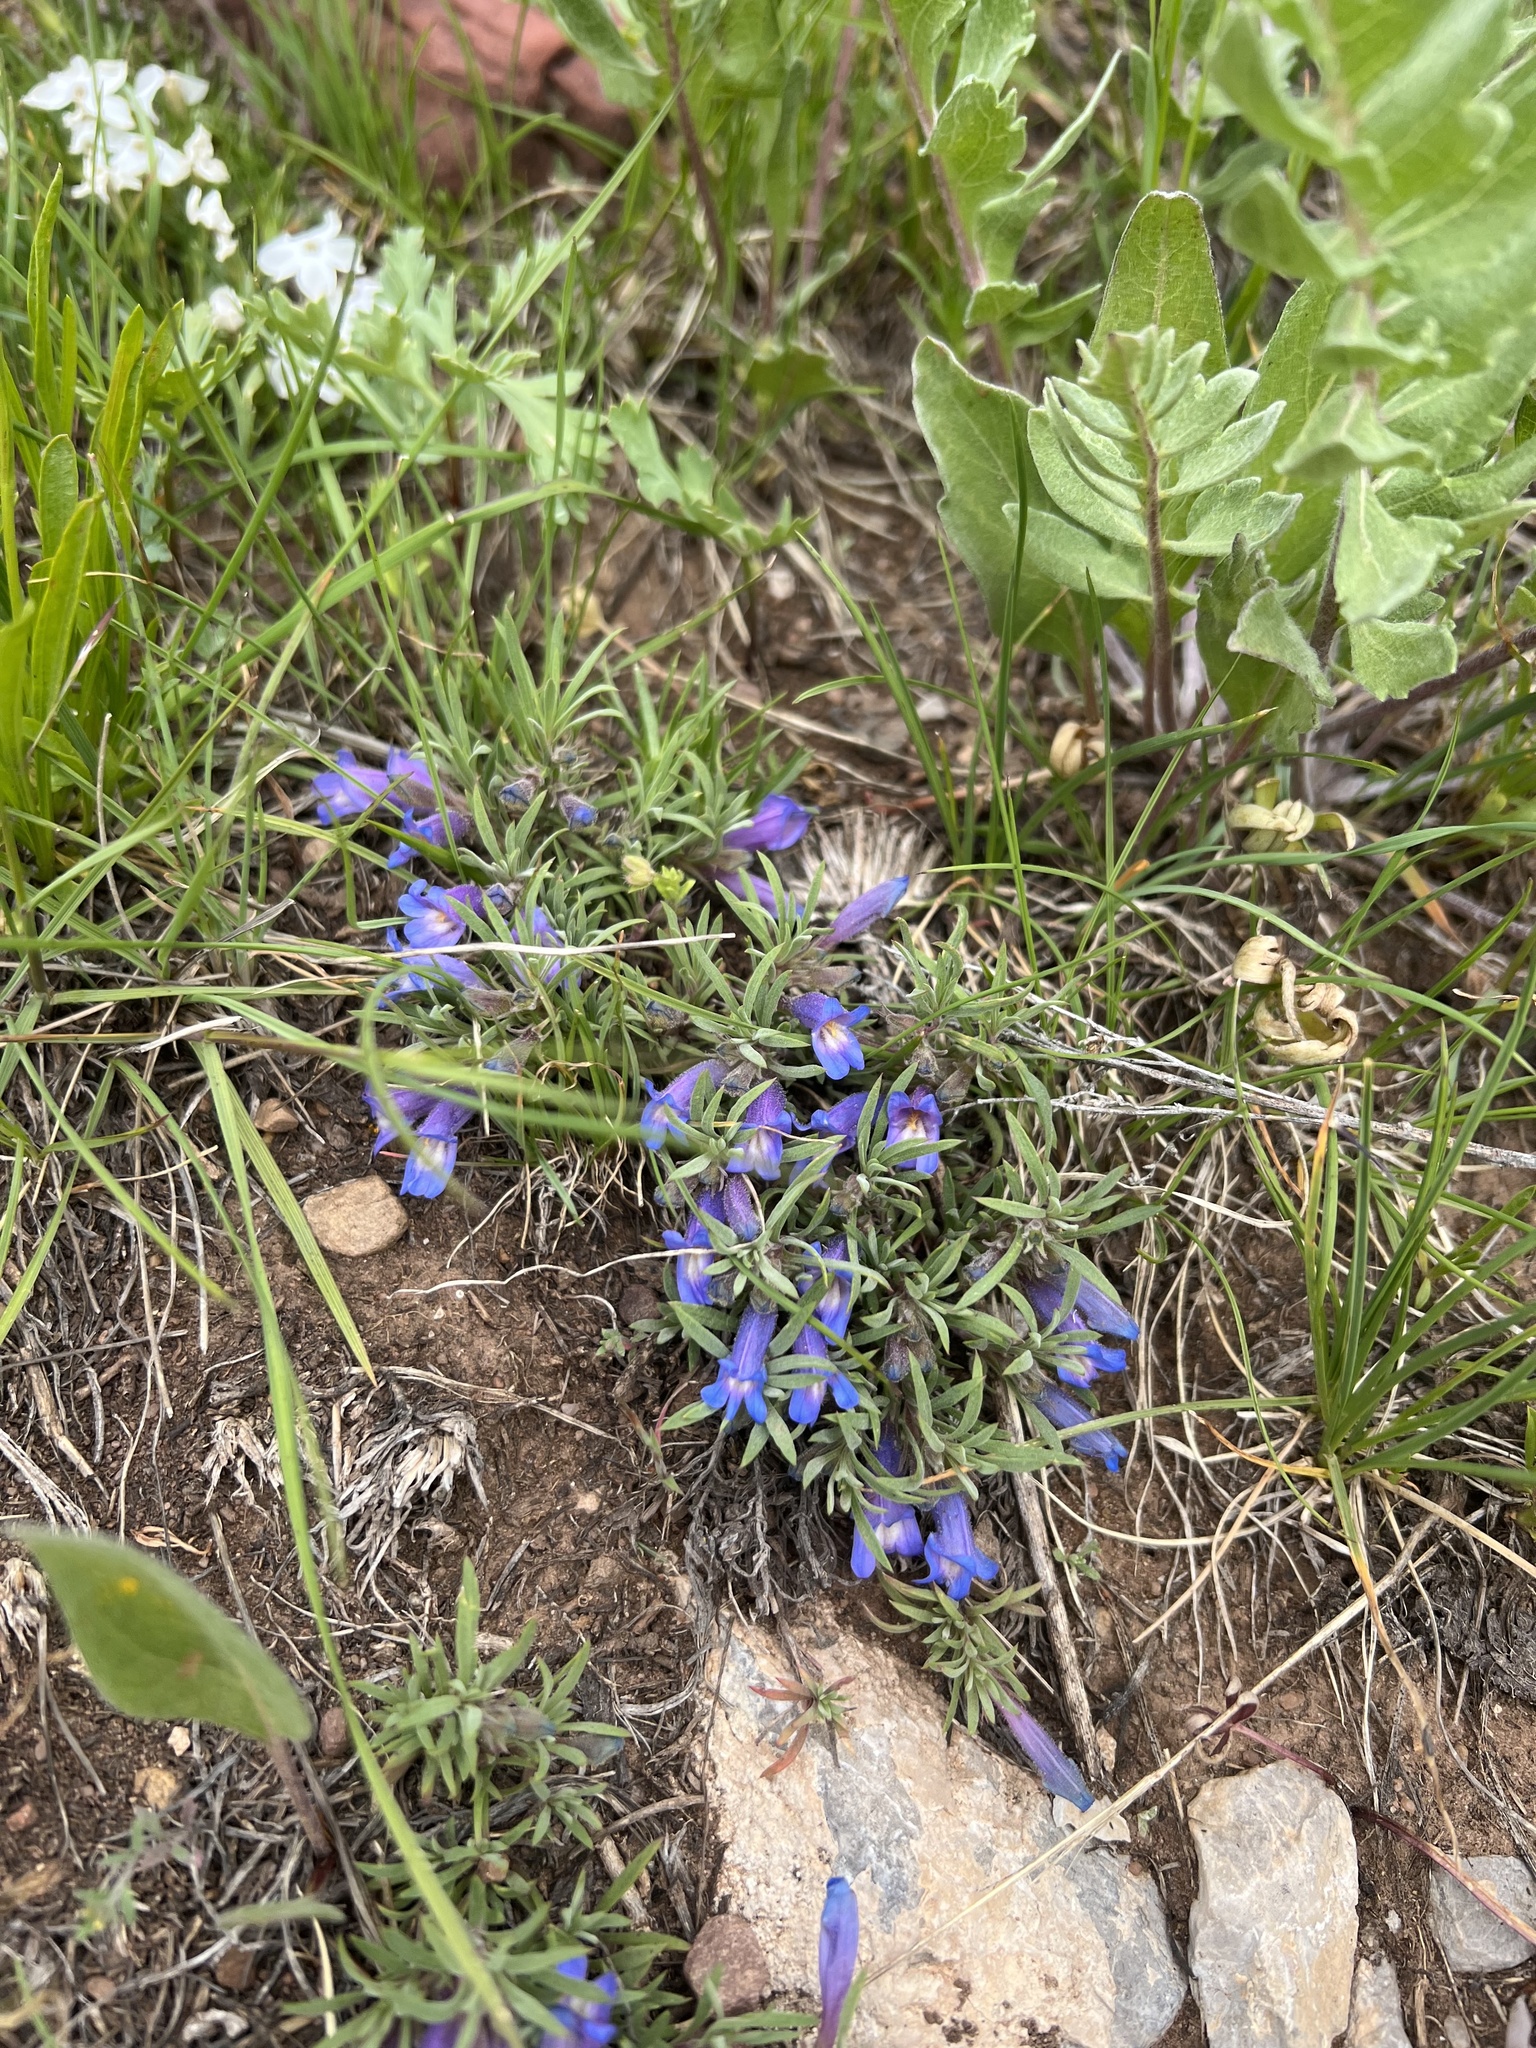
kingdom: Plantae
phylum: Tracheophyta
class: Magnoliopsida
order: Lamiales
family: Plantaginaceae
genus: Penstemon
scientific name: Penstemon caespitosus
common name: Mat penstemon
